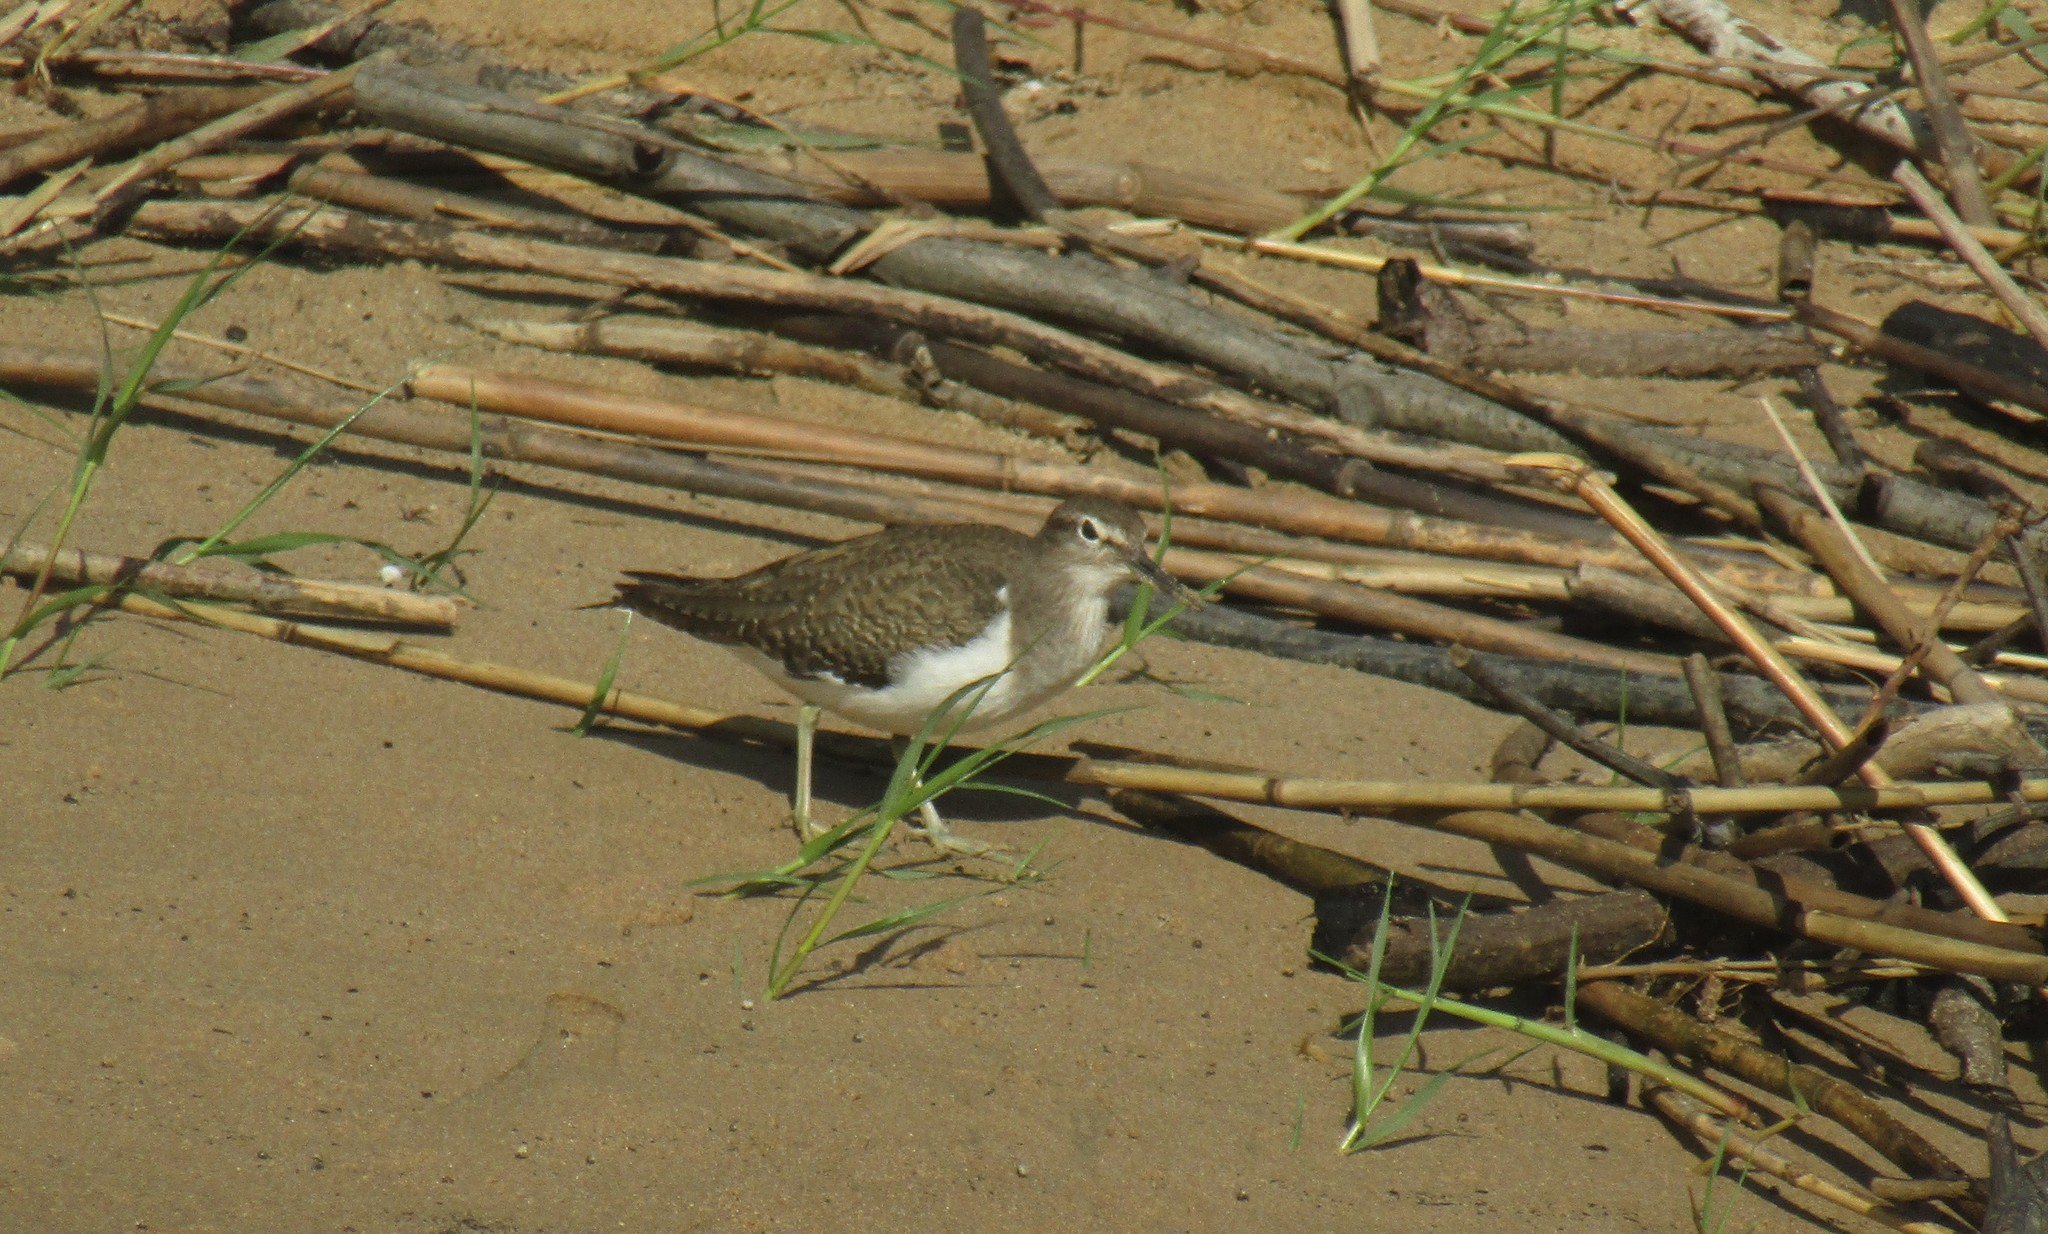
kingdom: Animalia
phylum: Chordata
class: Aves
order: Charadriiformes
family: Scolopacidae
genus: Actitis
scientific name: Actitis hypoleucos
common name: Common sandpiper
